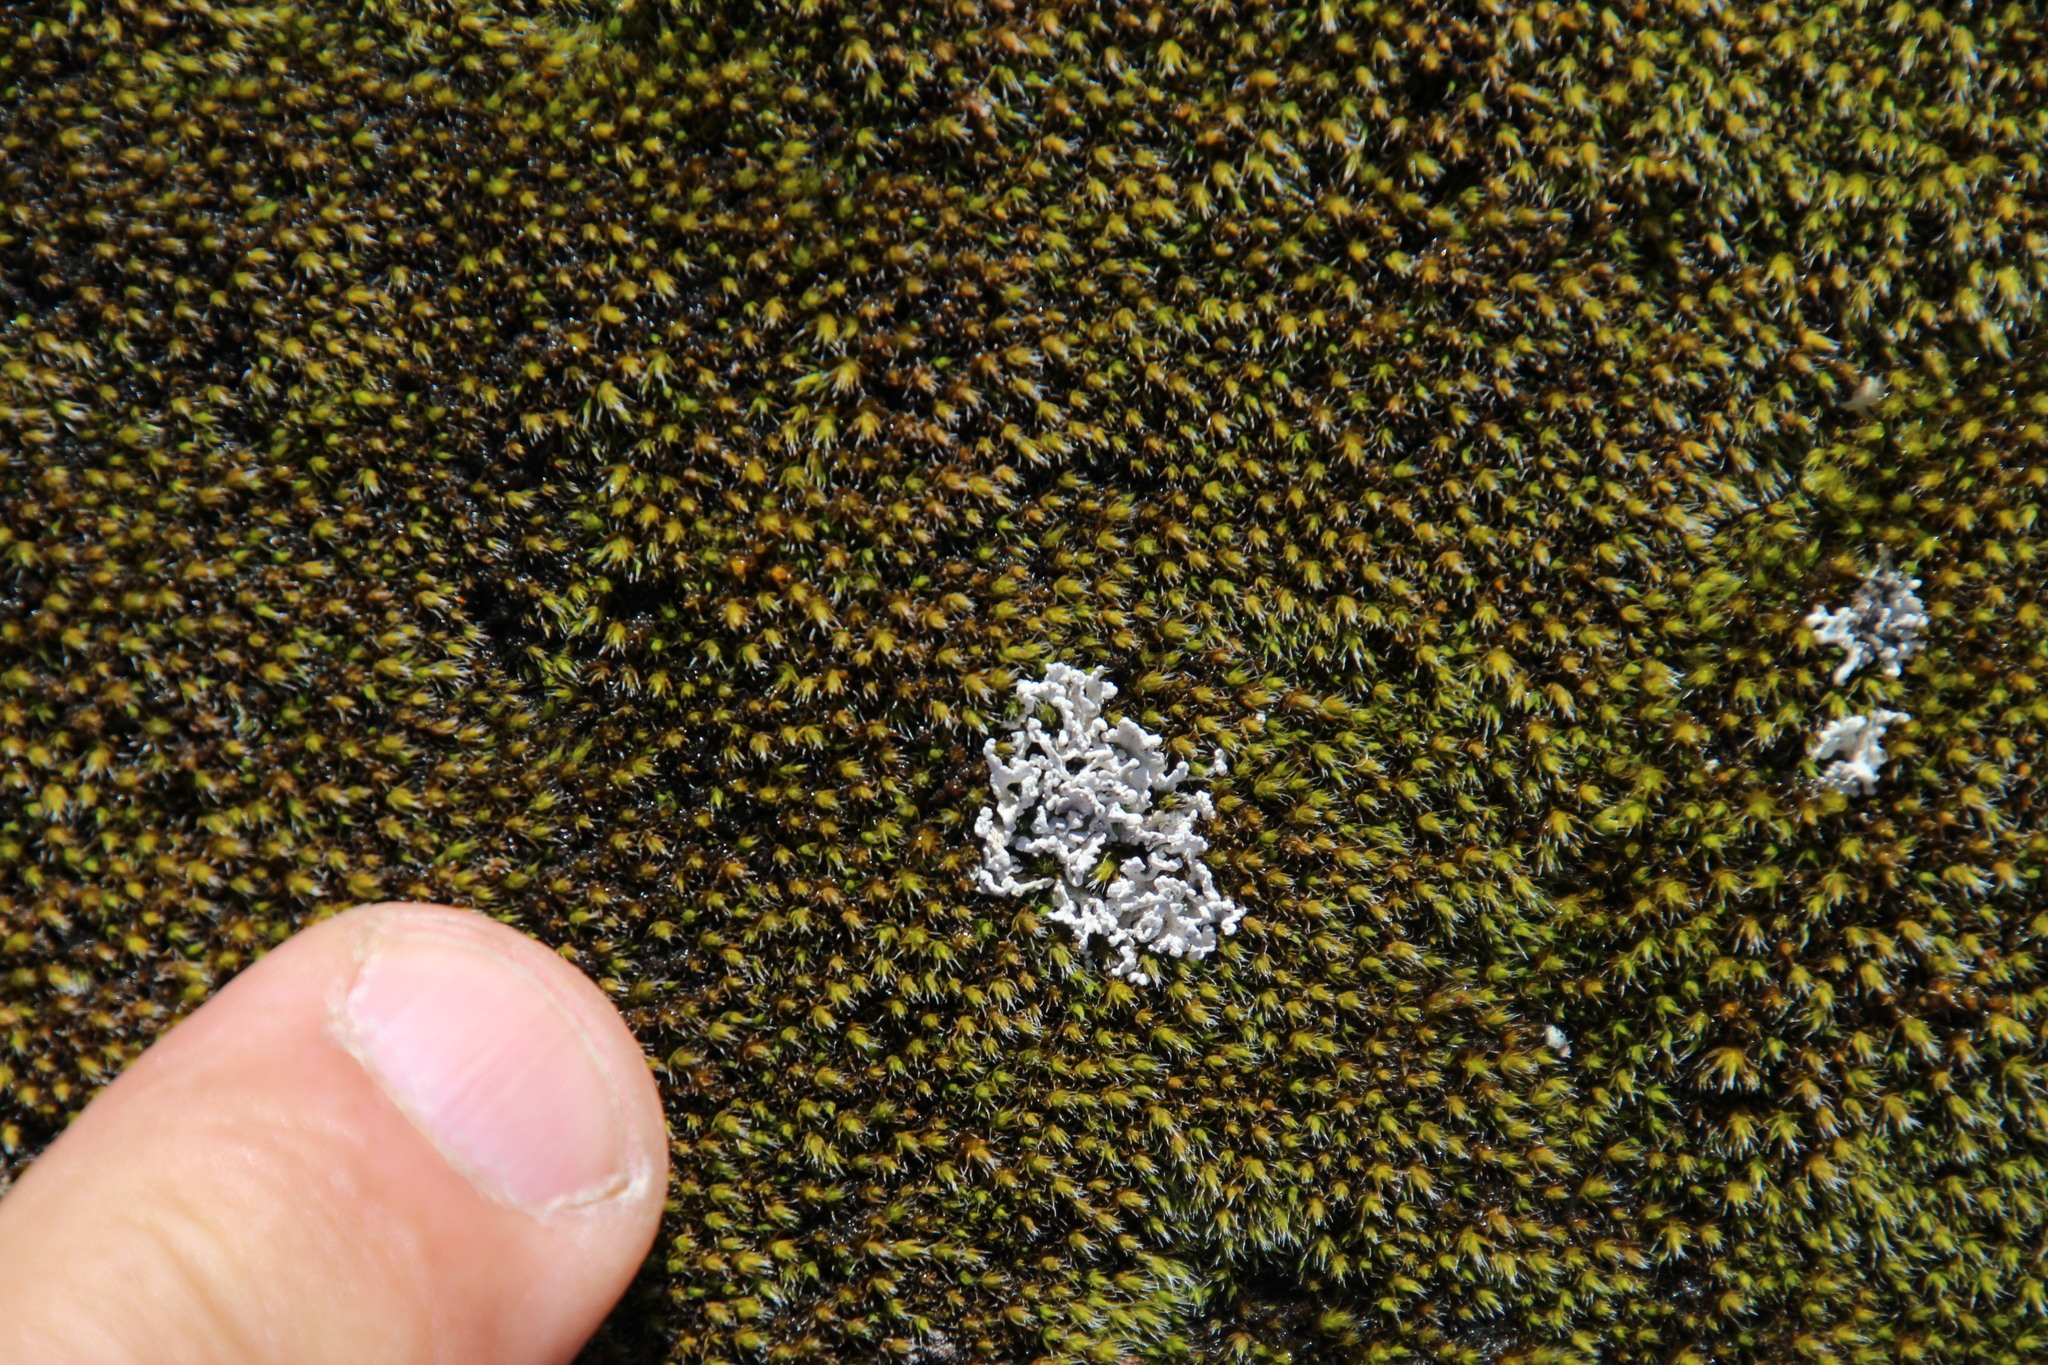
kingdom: Plantae
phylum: Bryophyta
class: Bryopsida
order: Grimmiales
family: Grimmiaceae
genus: Grimmia
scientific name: Grimmia laevigata
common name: Hoary grimmia
